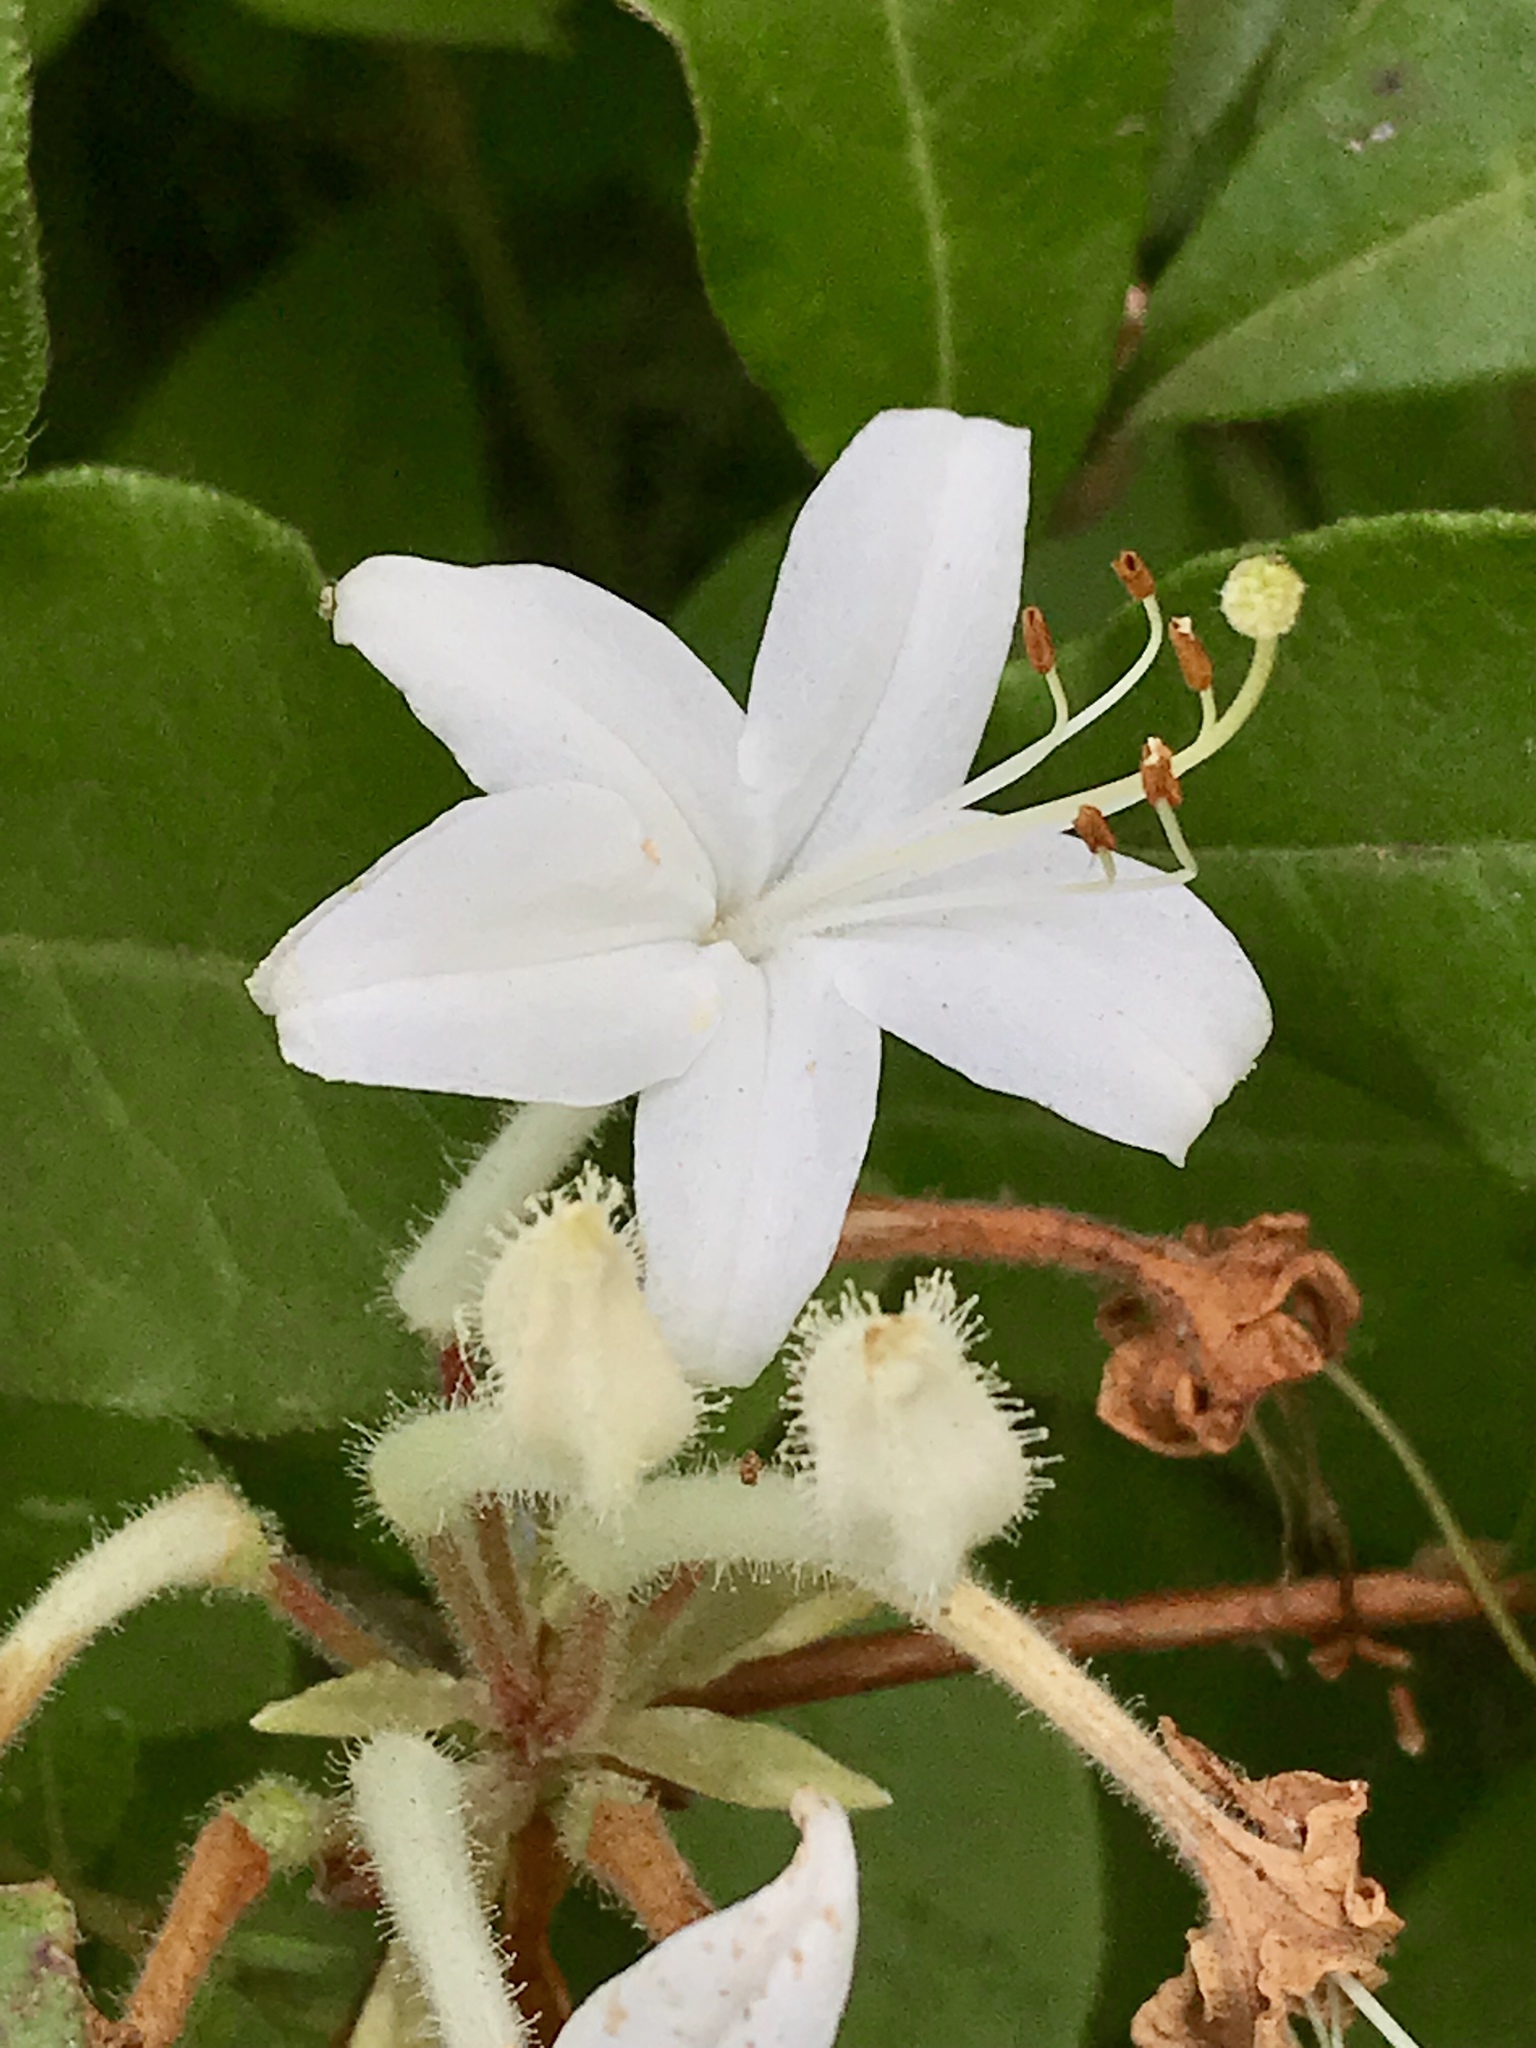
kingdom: Plantae
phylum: Tracheophyta
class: Magnoliopsida
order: Ericales
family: Ericaceae
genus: Rhododendron
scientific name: Rhododendron viscosum
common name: Clammy azalea
